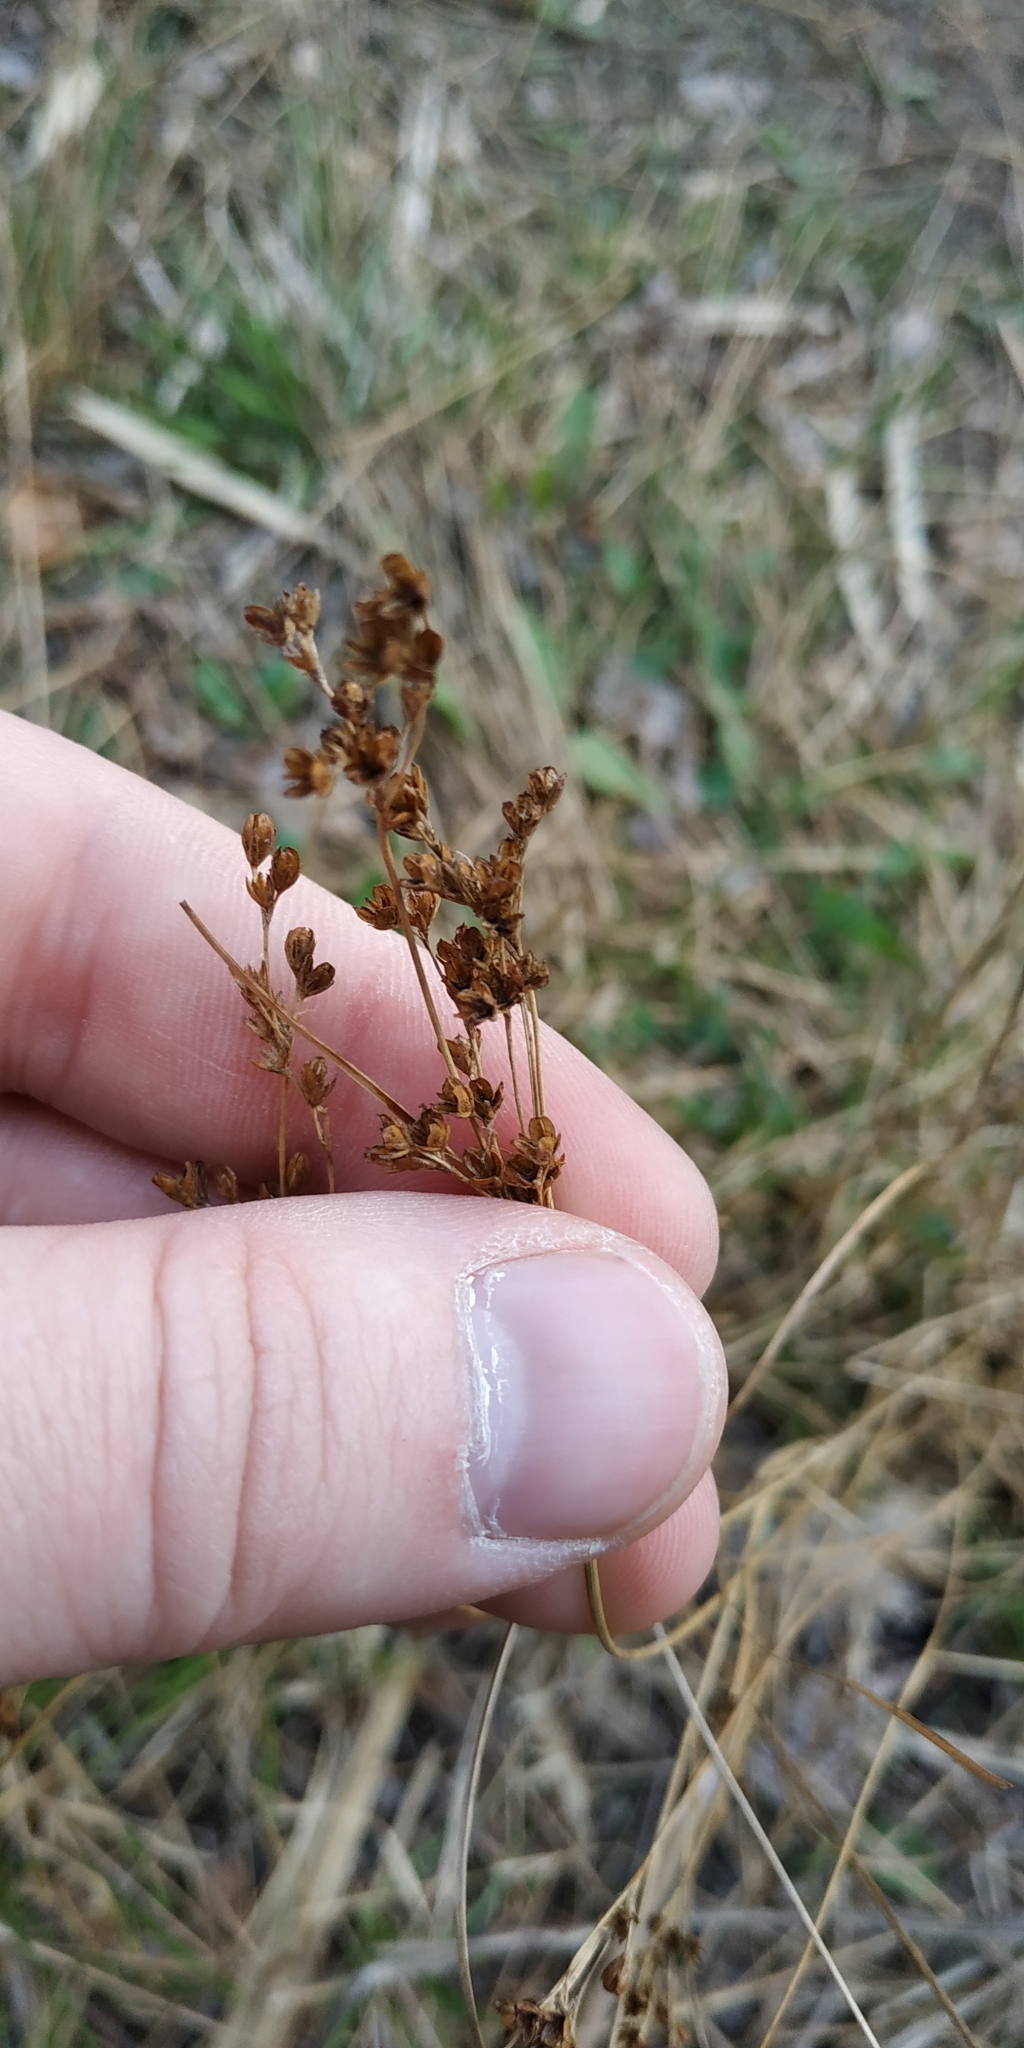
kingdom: Plantae
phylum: Tracheophyta
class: Liliopsida
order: Poales
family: Juncaceae
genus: Juncus
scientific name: Juncus compressus
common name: Round-fruited rush
